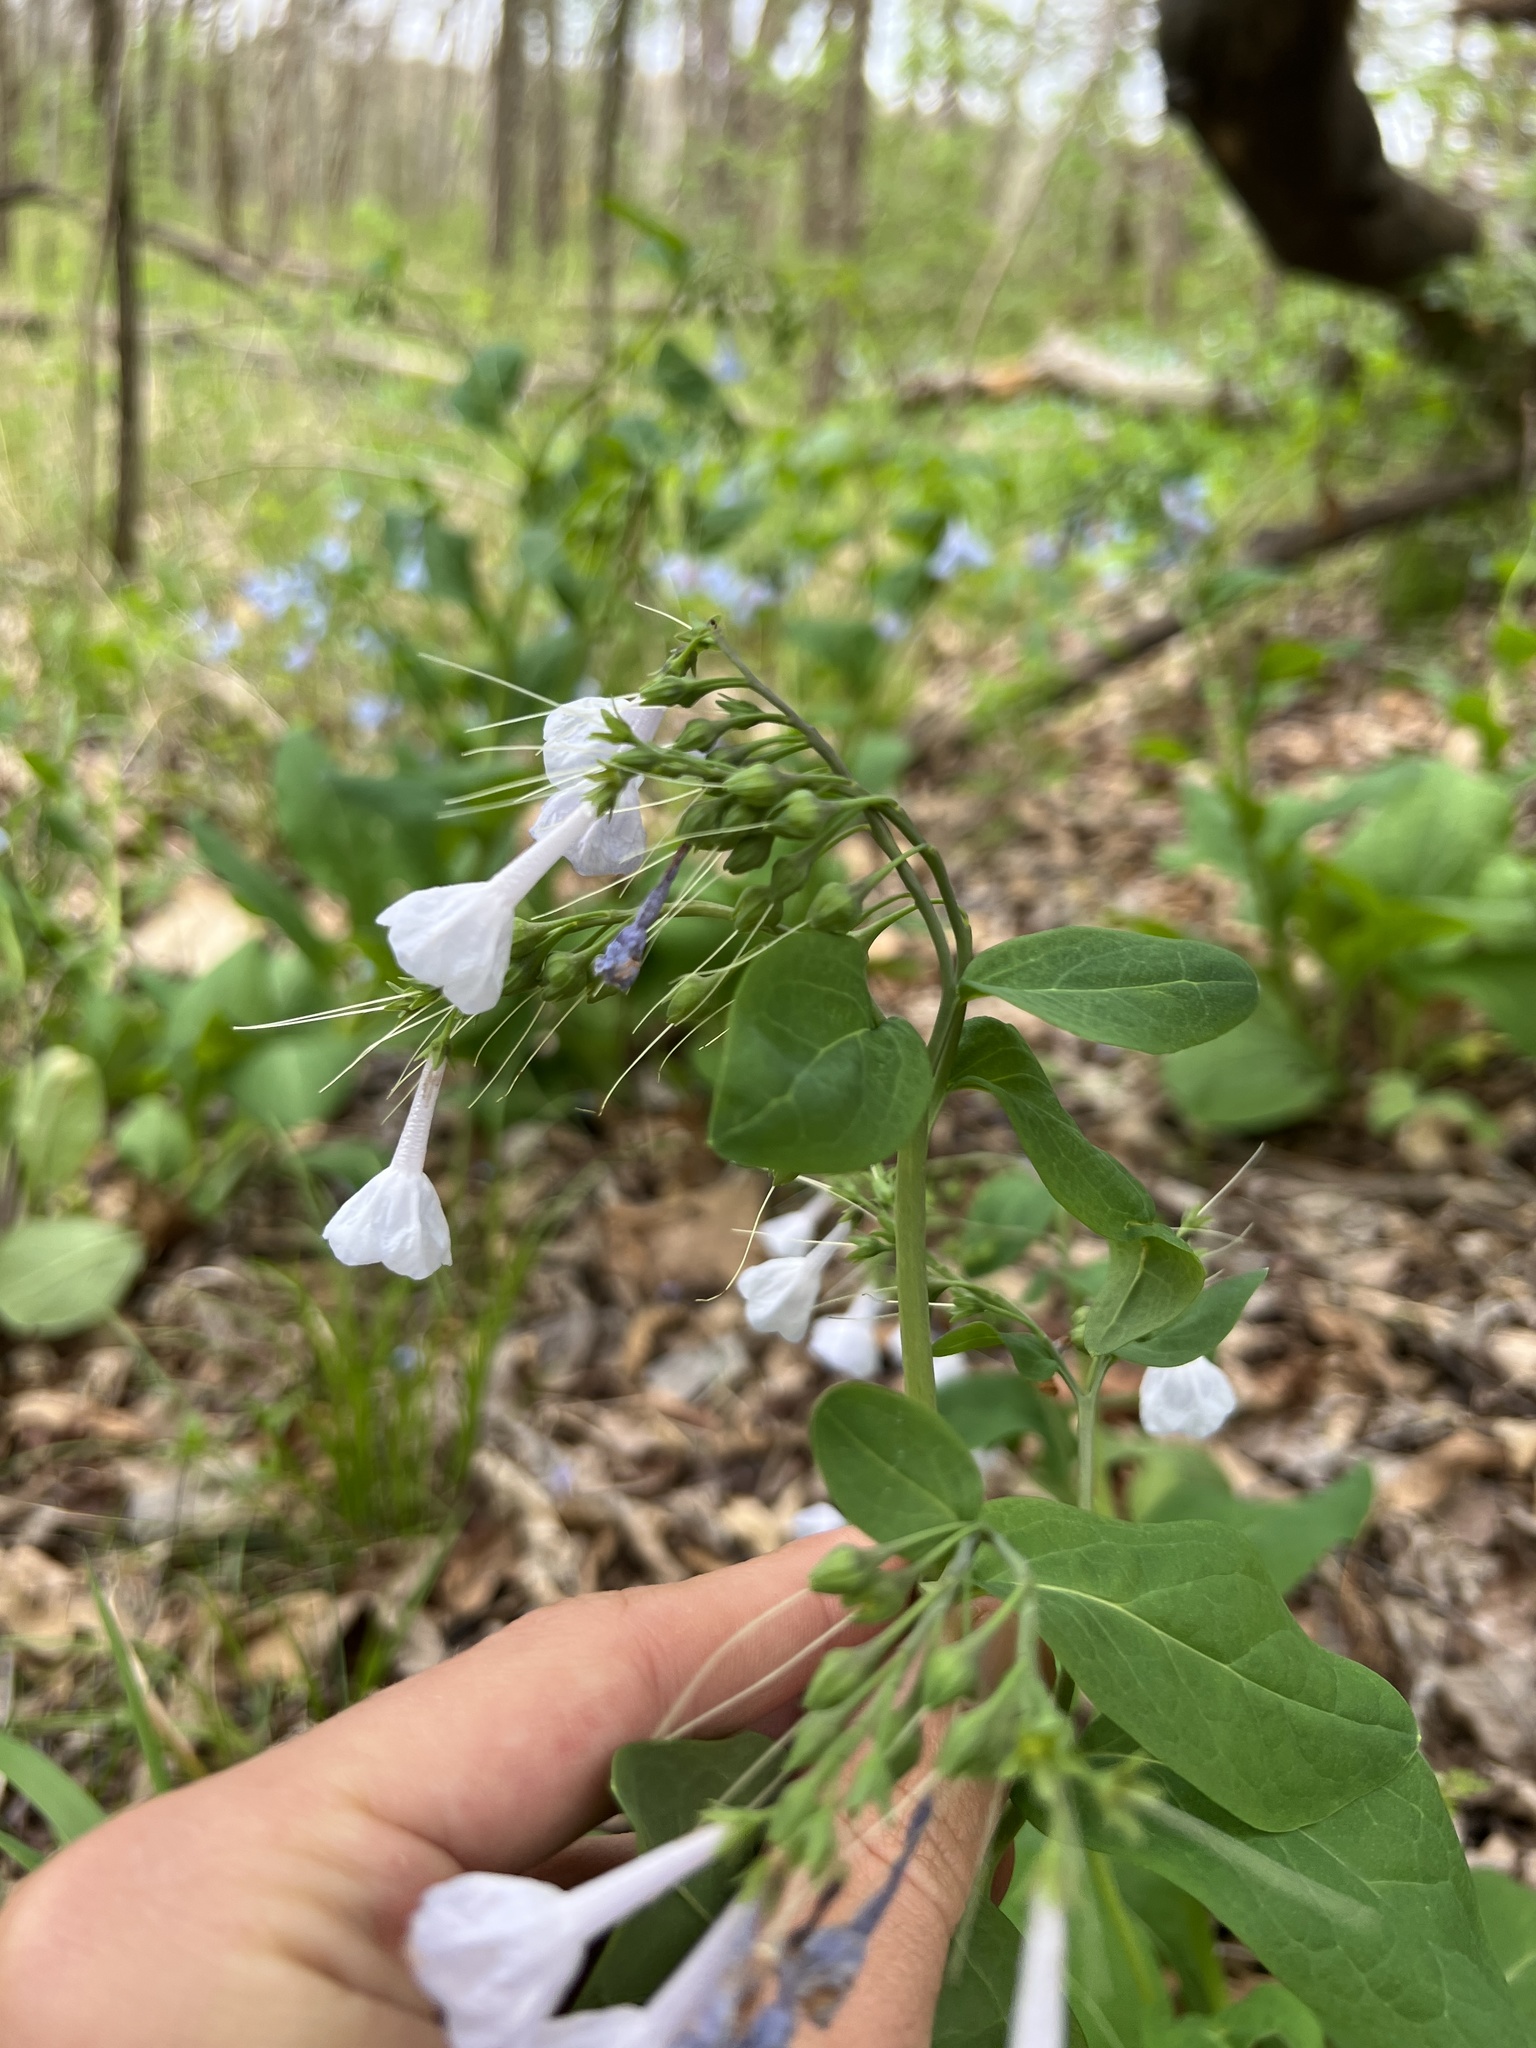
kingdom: Plantae
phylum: Tracheophyta
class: Magnoliopsida
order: Boraginales
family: Boraginaceae
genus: Mertensia
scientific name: Mertensia virginica
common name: Virginia bluebells
